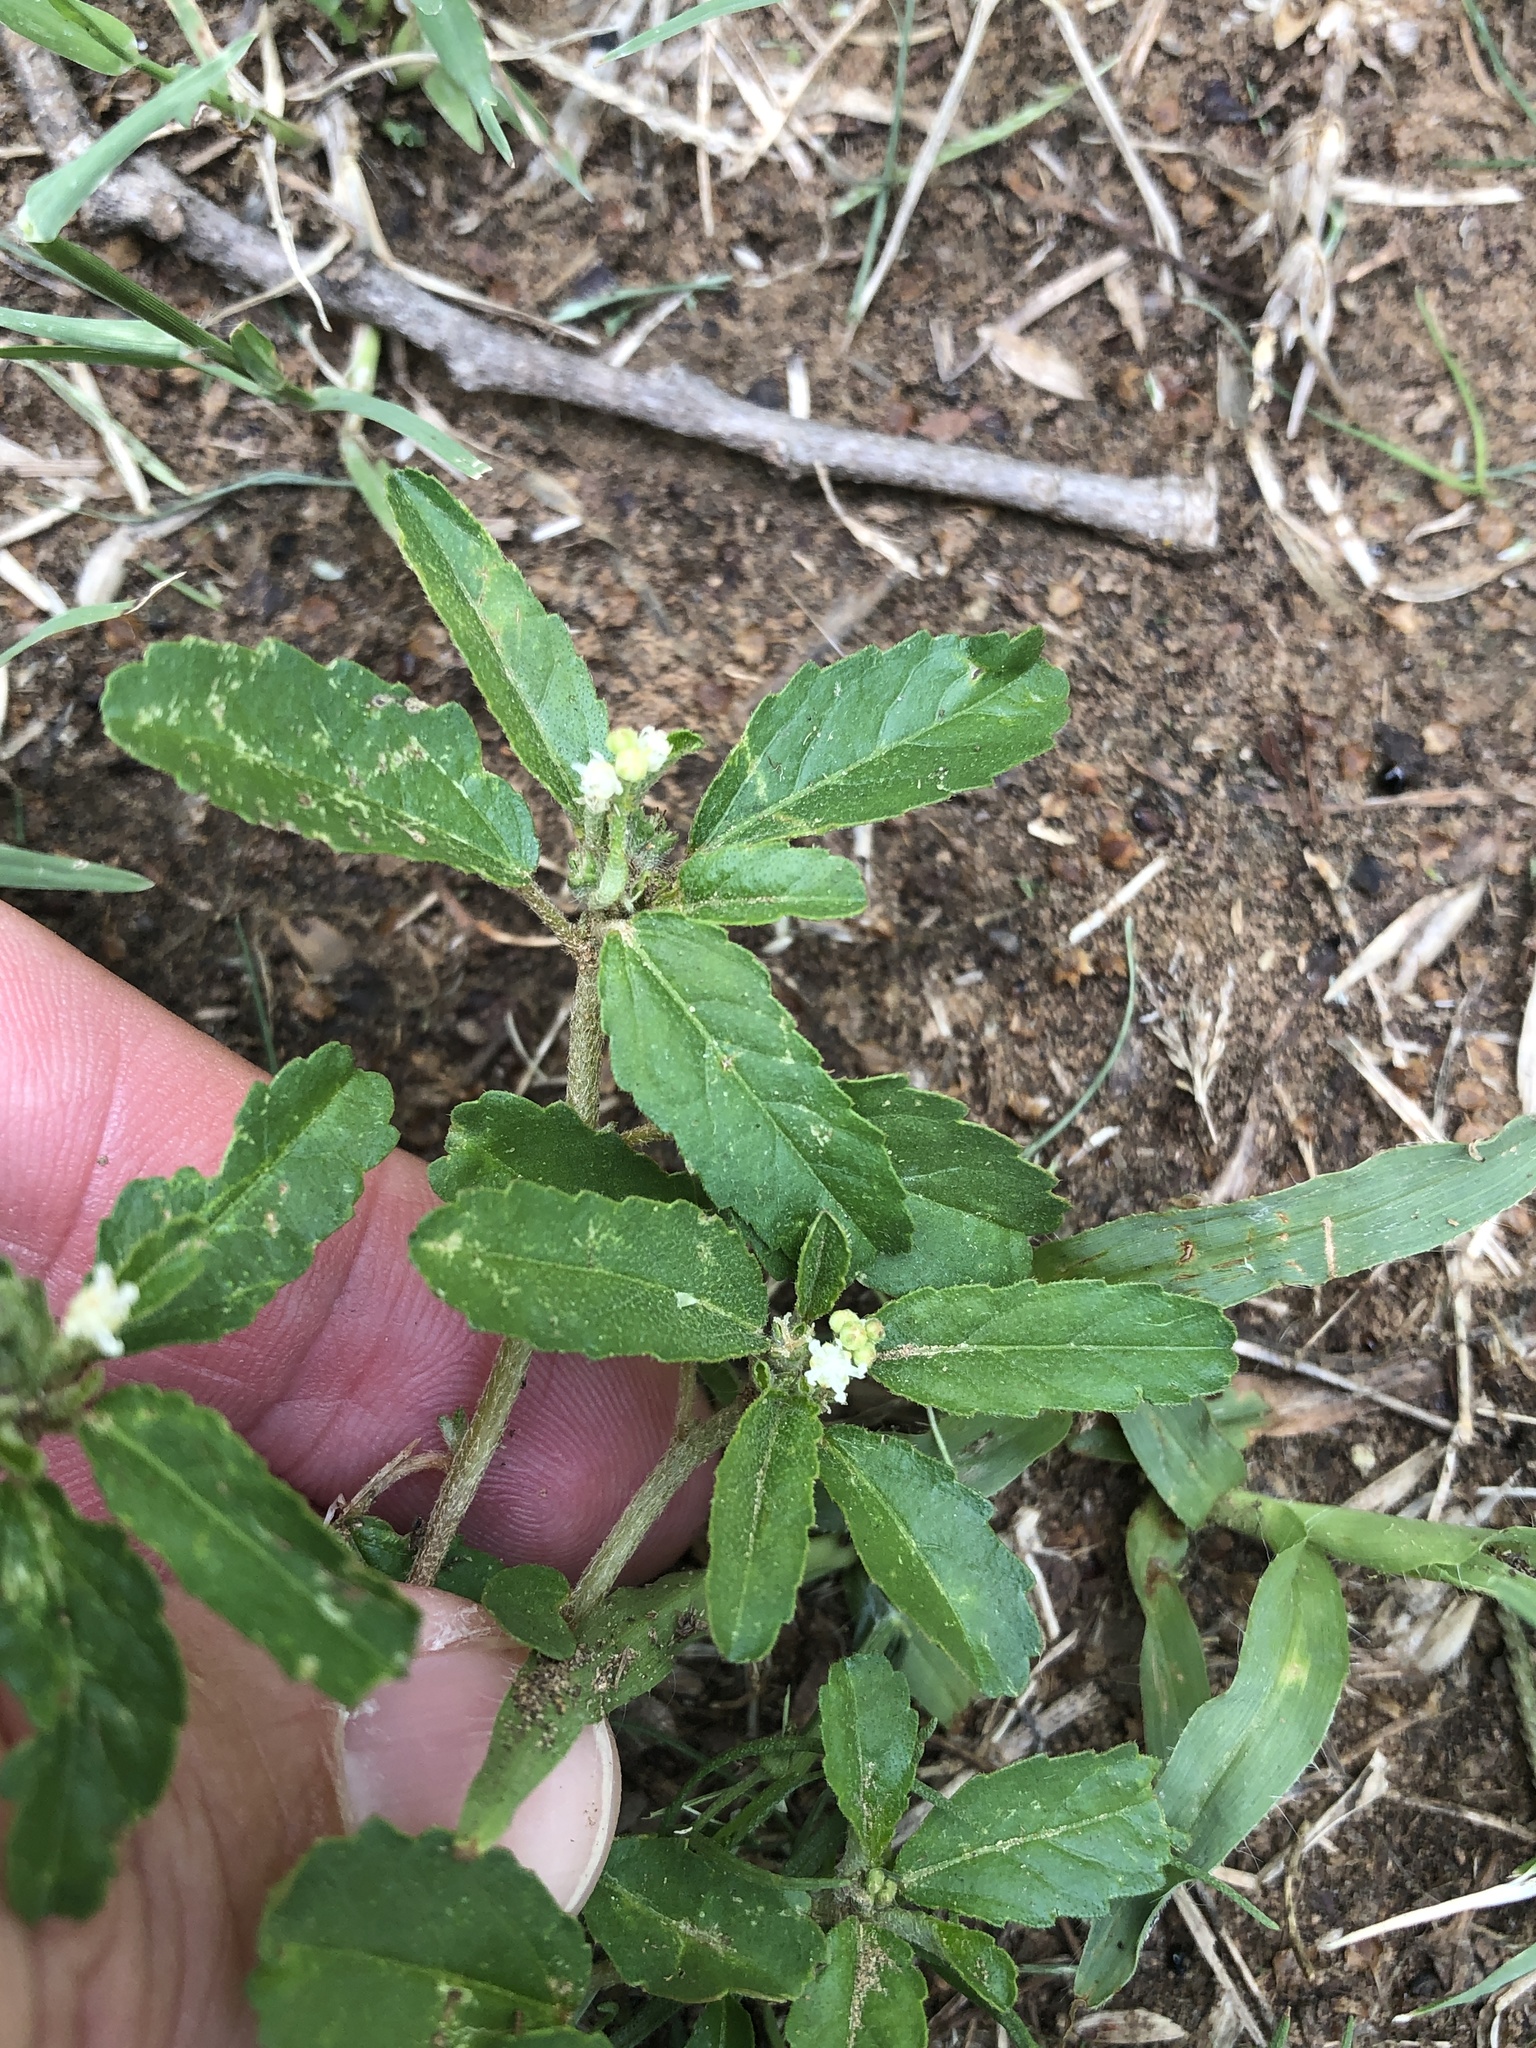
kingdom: Plantae
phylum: Tracheophyta
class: Magnoliopsida
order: Malpighiales
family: Euphorbiaceae
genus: Croton
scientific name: Croton glandulosus
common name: Tropic croton
